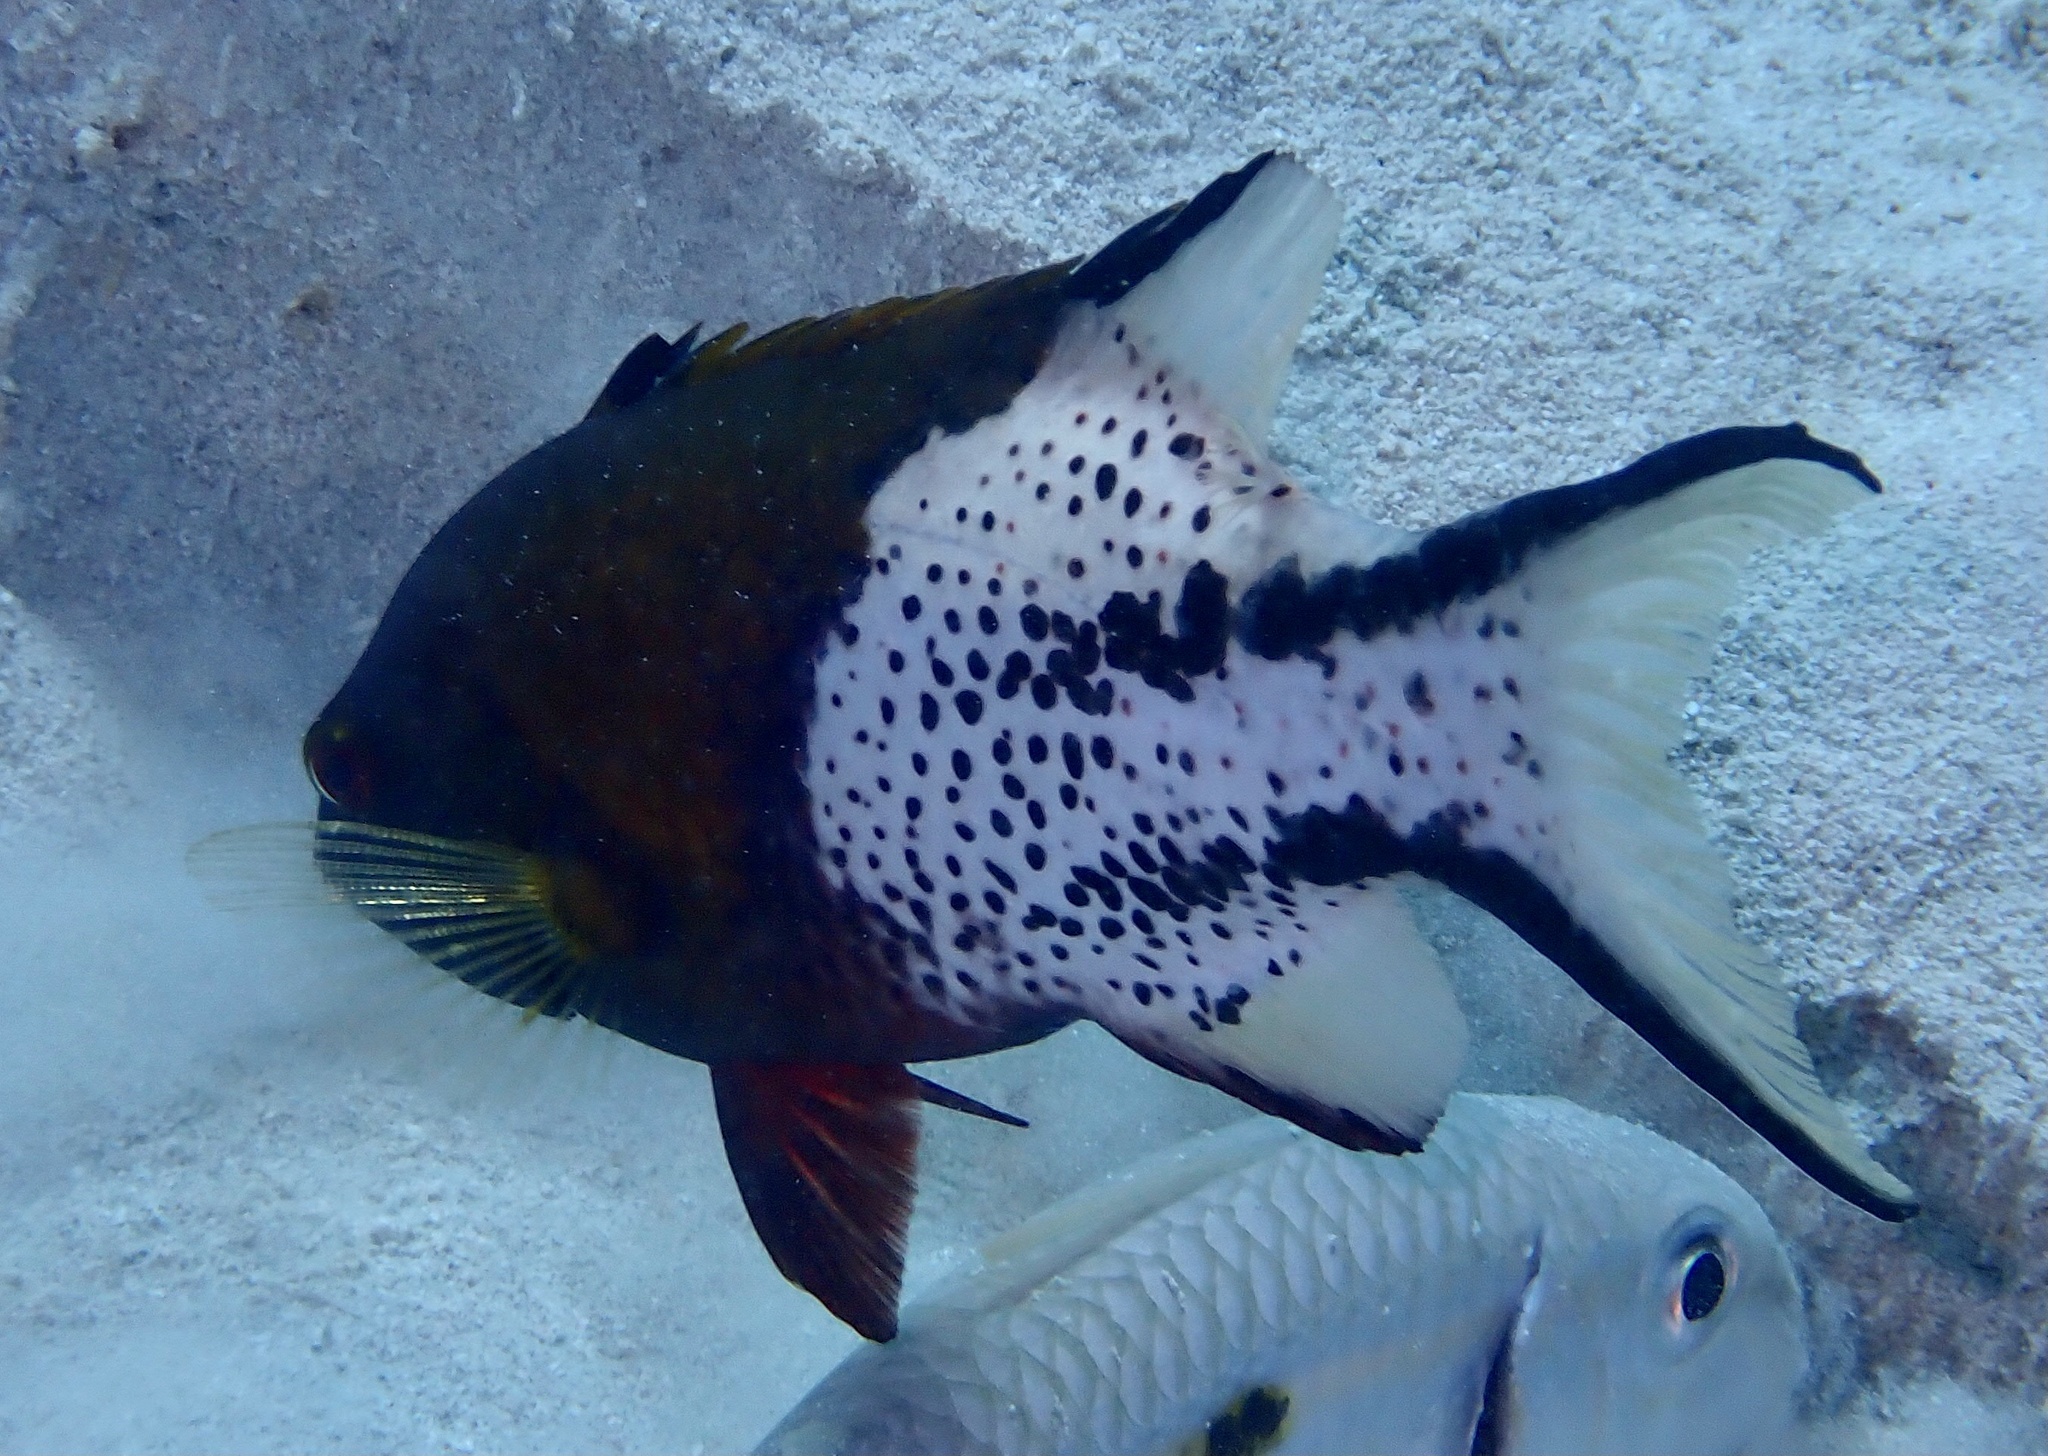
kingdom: Animalia
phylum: Chordata
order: Perciformes
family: Labridae
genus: Bodianus
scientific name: Bodianus anthioides
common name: Lyretail hogfish
